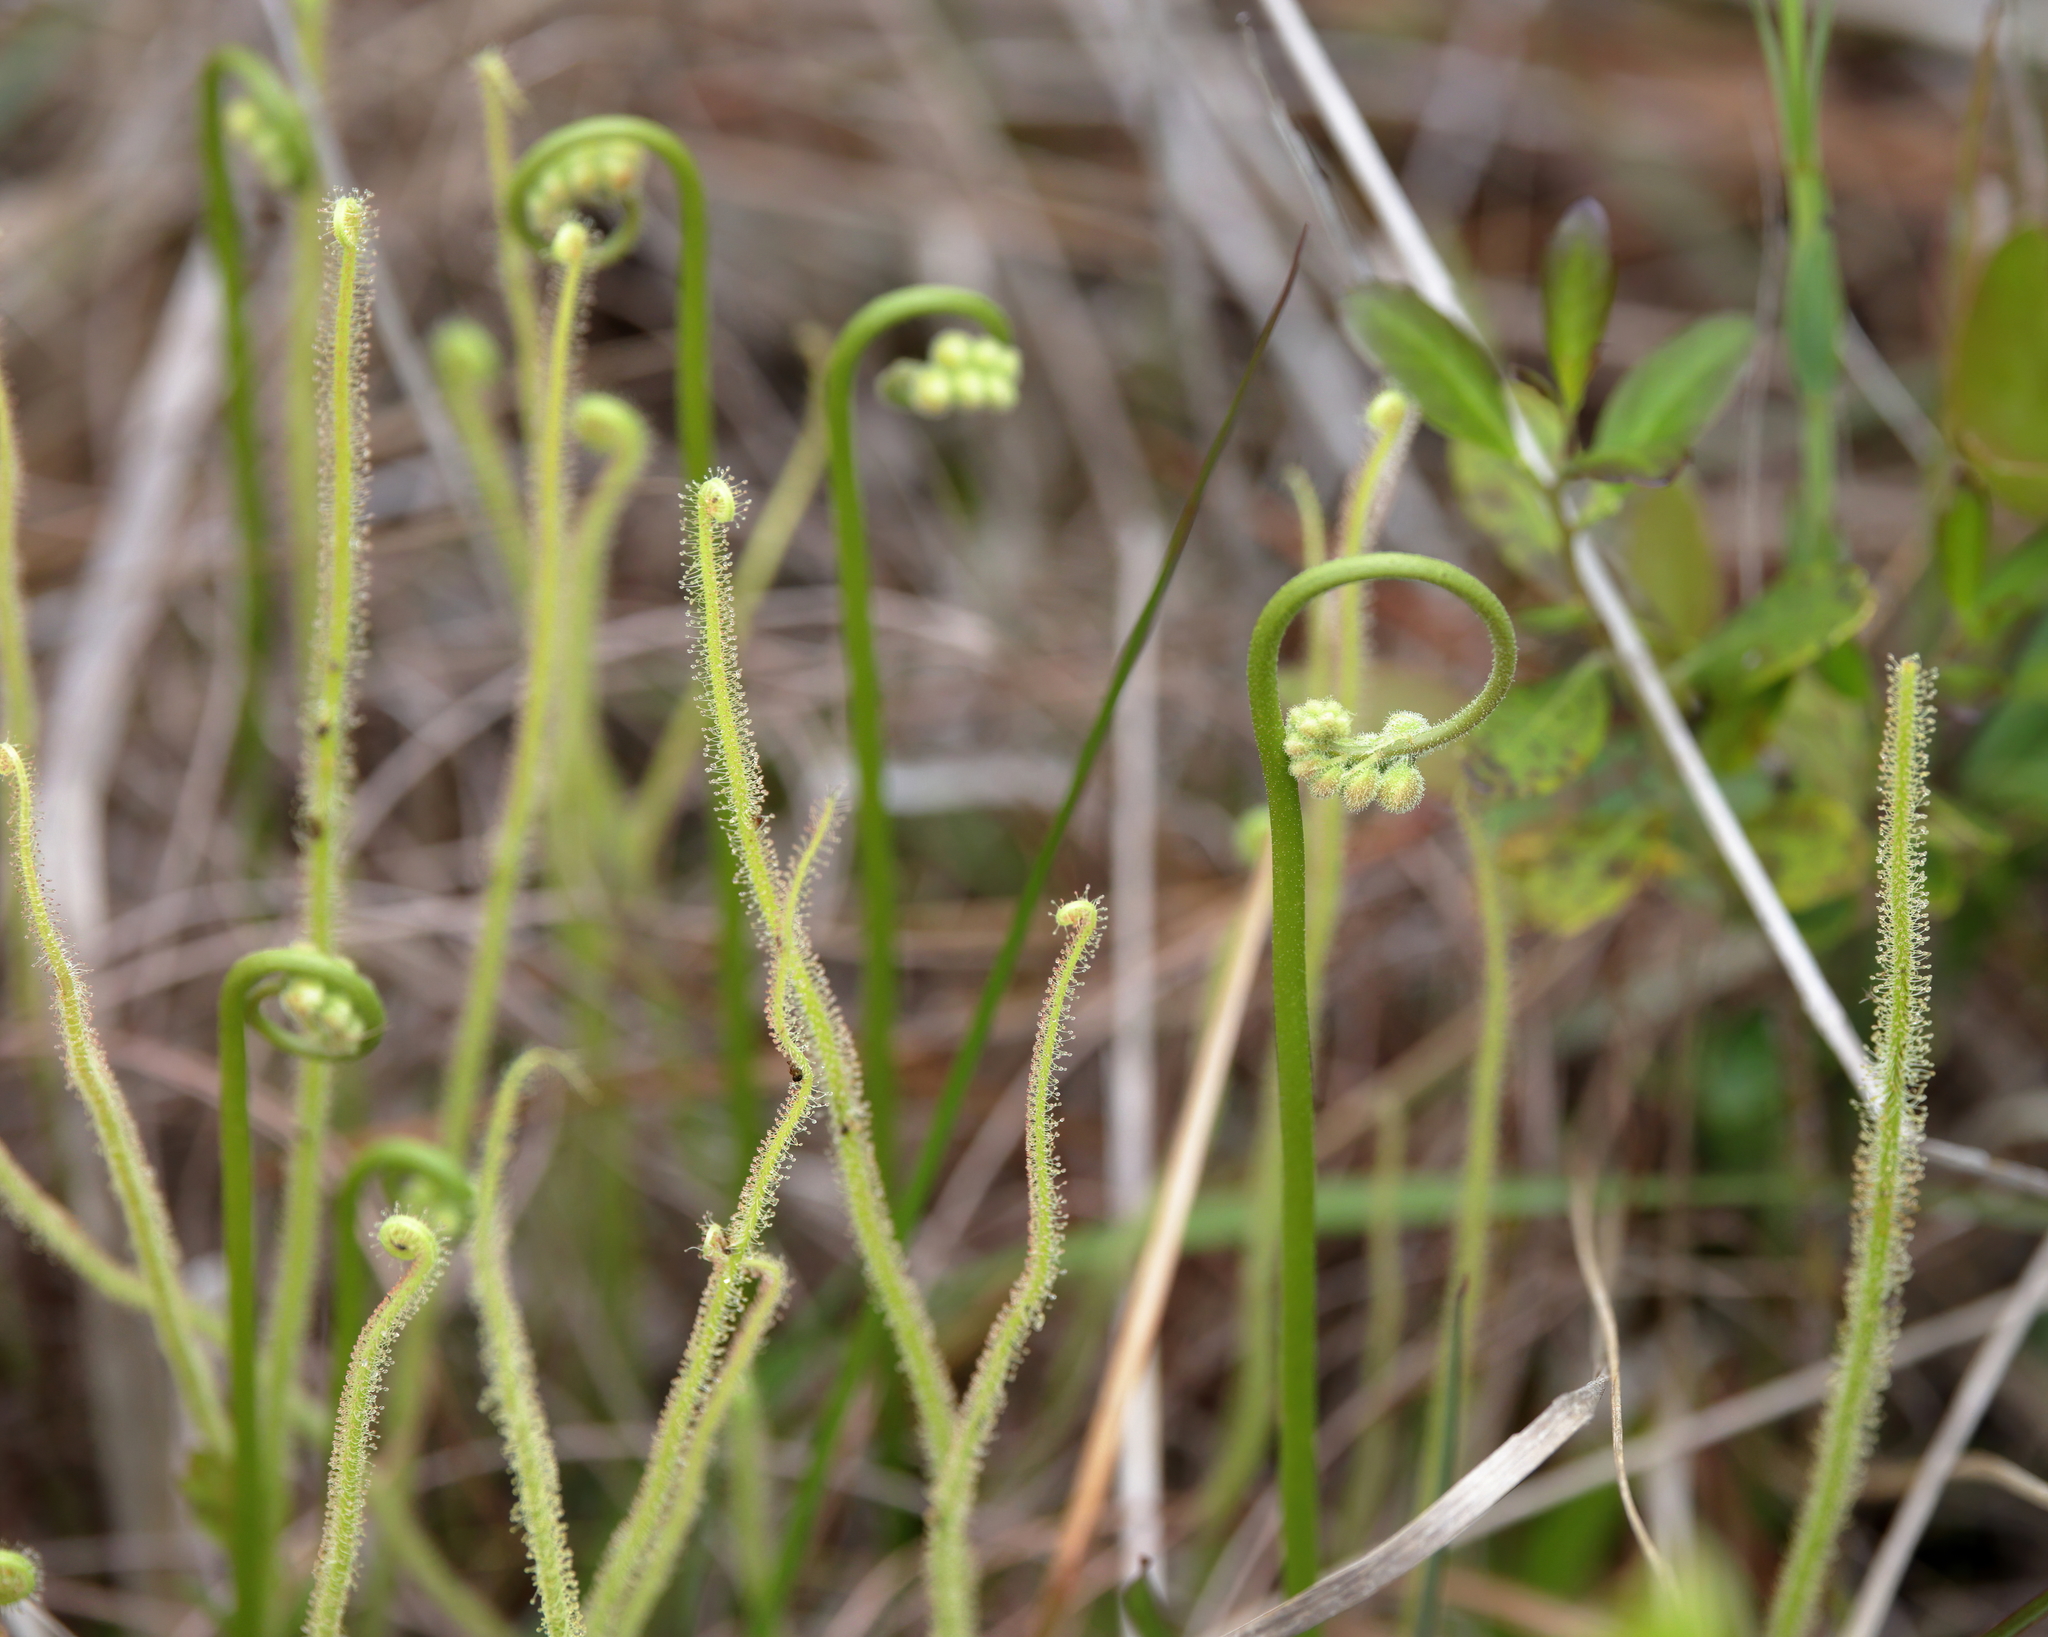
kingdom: Plantae
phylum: Tracheophyta
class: Magnoliopsida
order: Caryophyllales
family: Droseraceae
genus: Drosera
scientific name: Drosera filiformis
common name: Dew-thread
